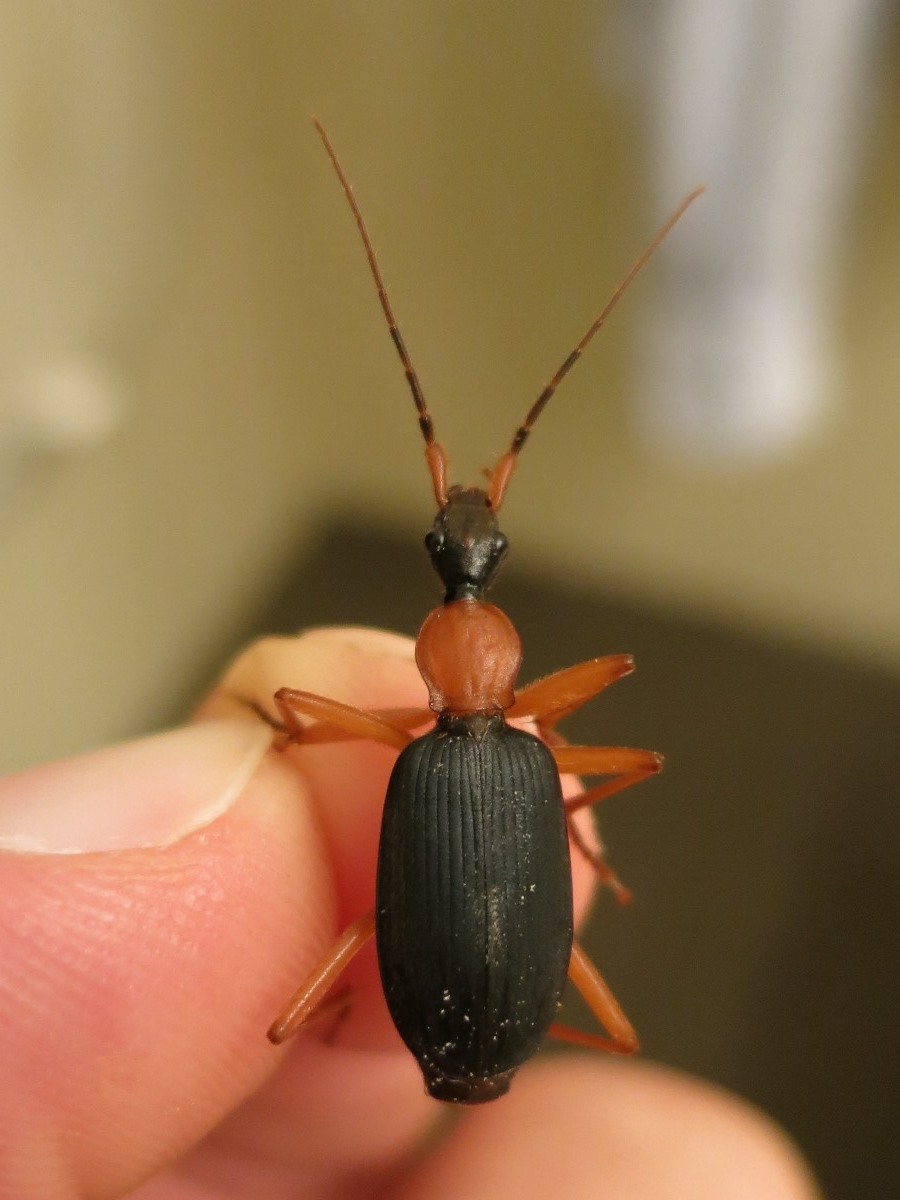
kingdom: Animalia
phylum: Arthropoda
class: Insecta
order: Coleoptera
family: Carabidae
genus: Galerita
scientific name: Galerita bicolor
